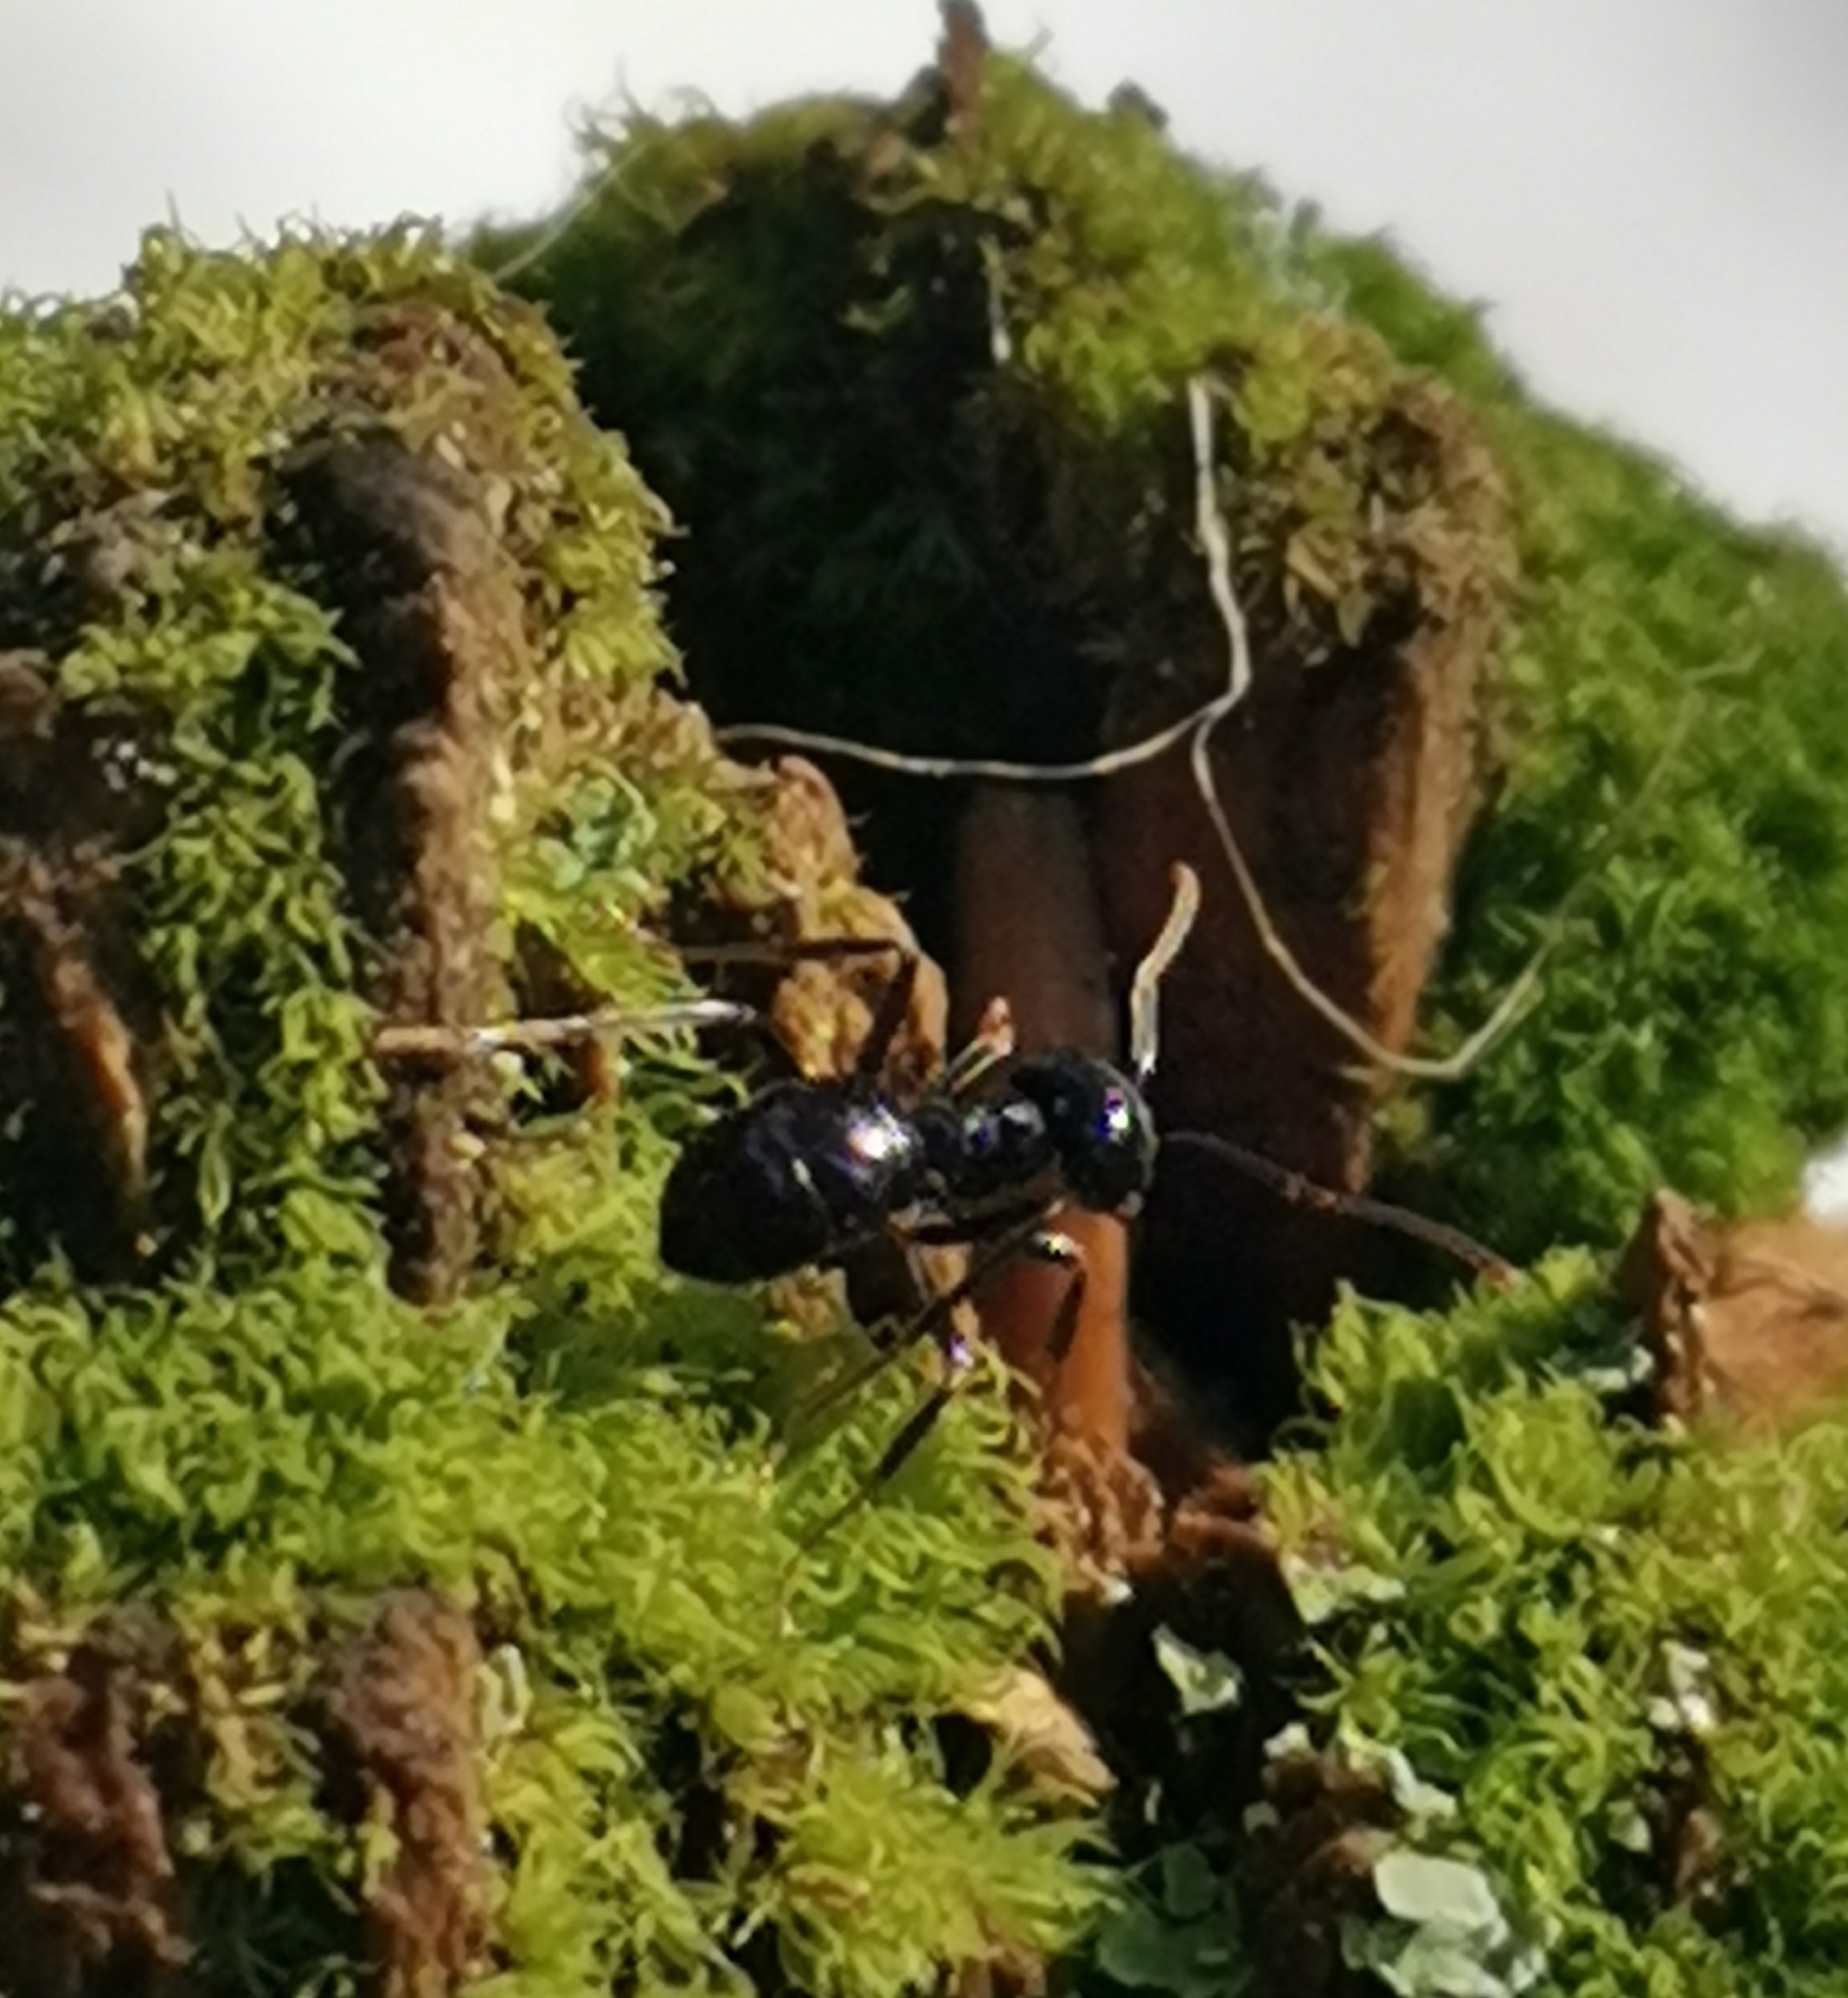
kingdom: Animalia
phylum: Arthropoda
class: Insecta
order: Hymenoptera
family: Formicidae
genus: Lasius
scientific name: Lasius fuliginosus
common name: Jet ant
